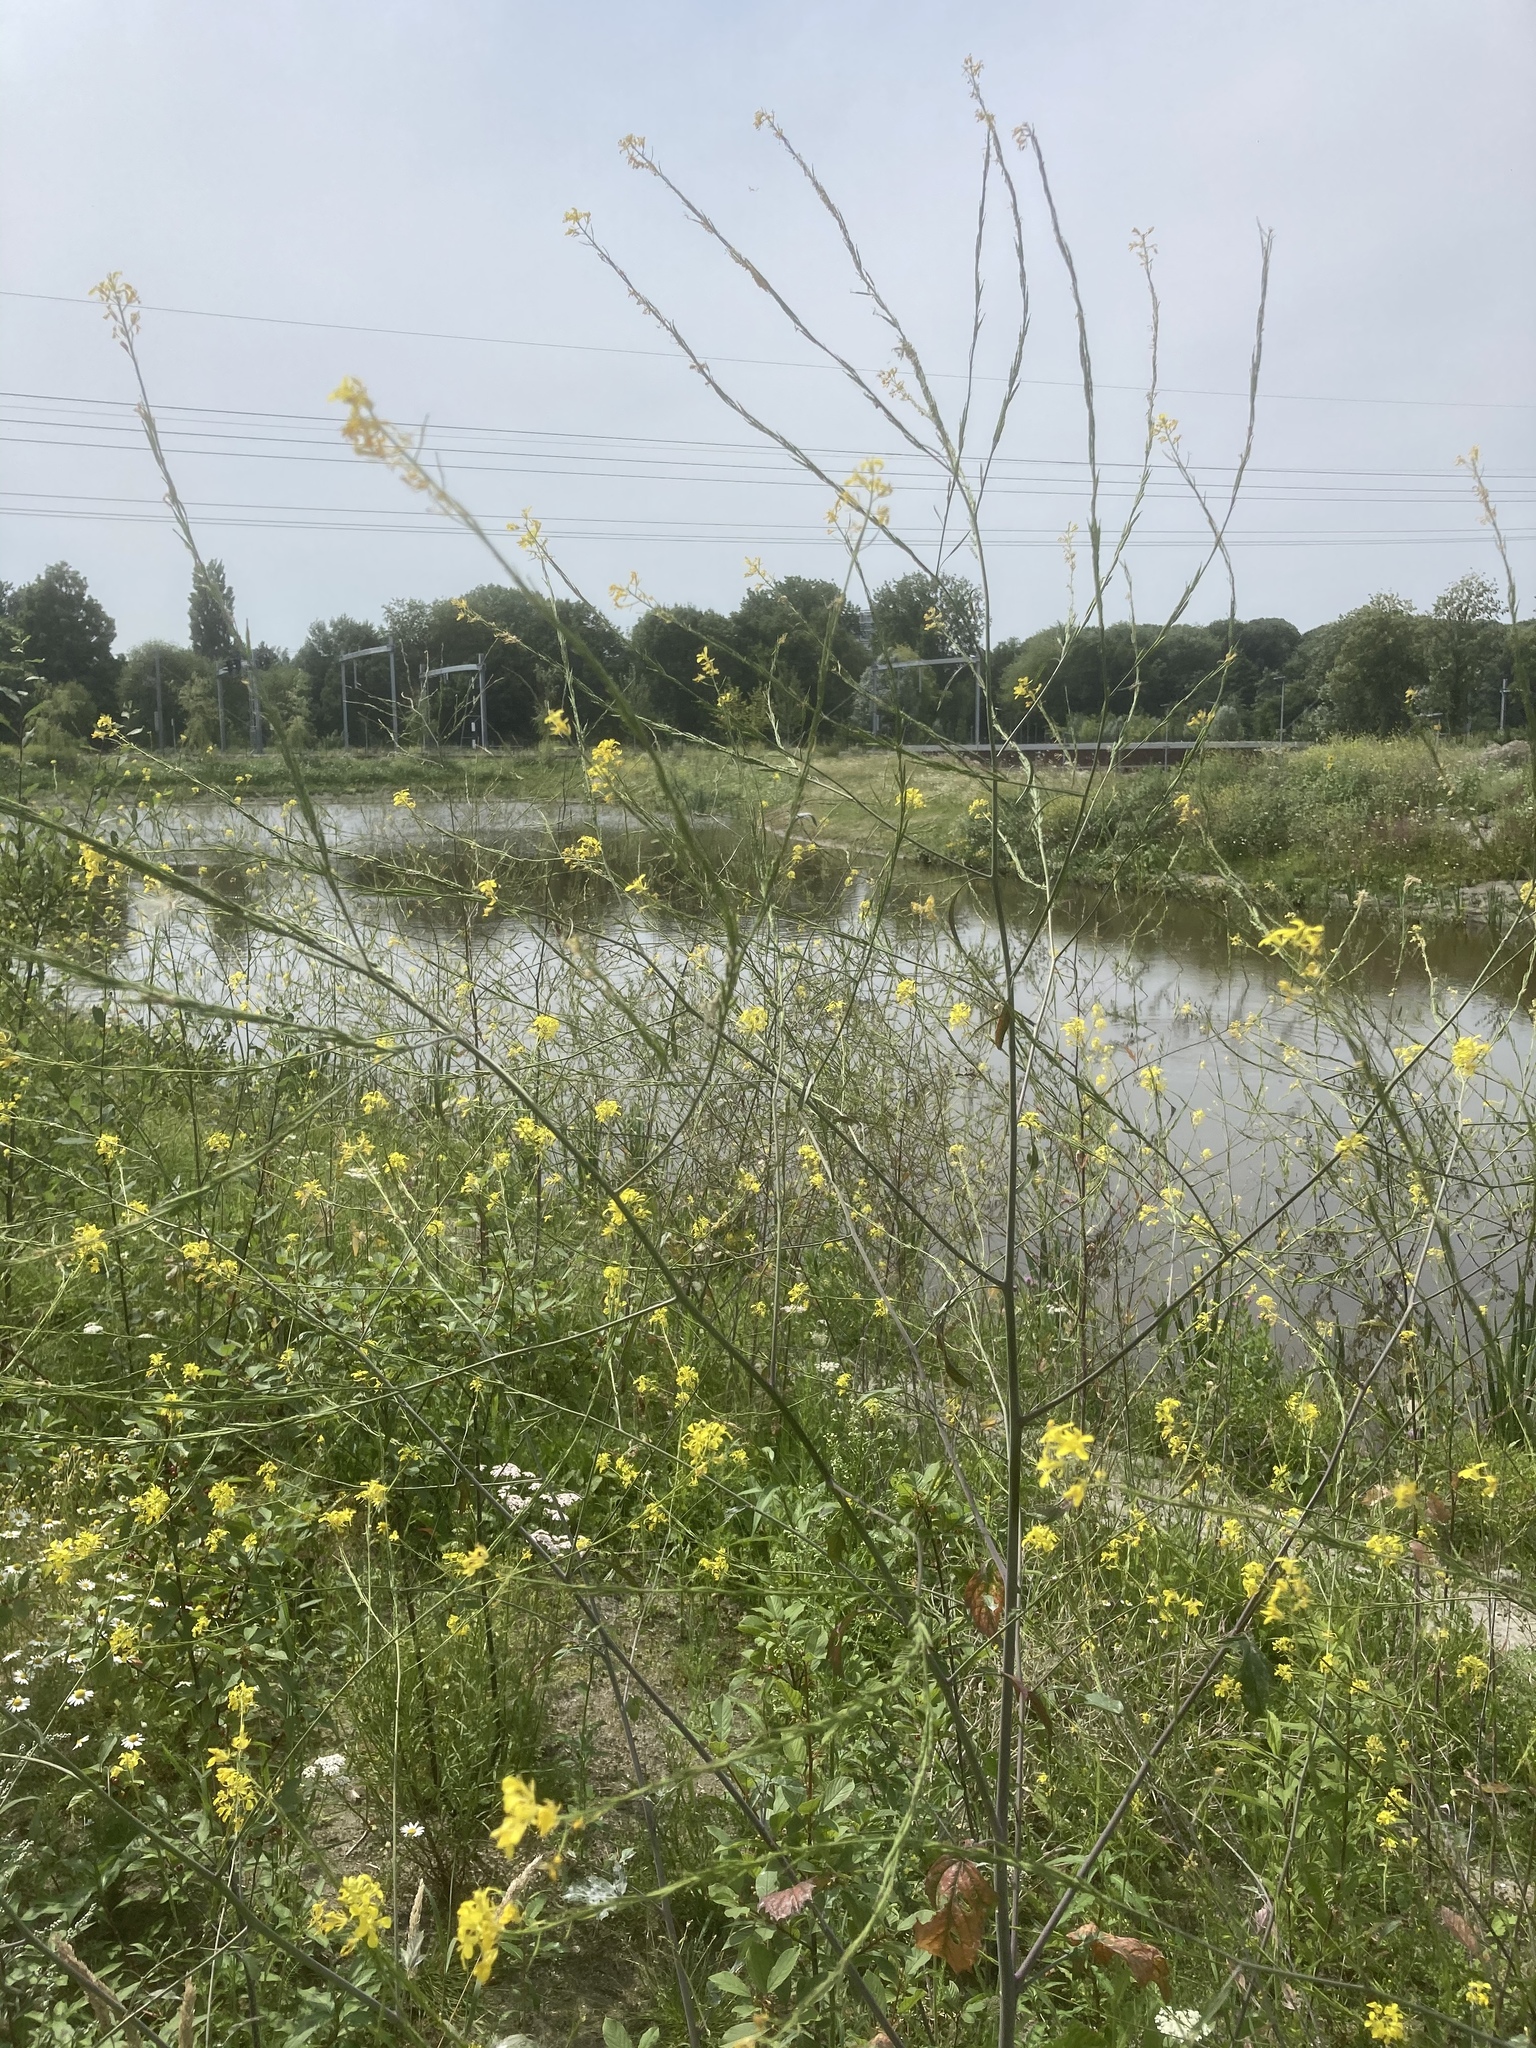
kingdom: Plantae
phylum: Tracheophyta
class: Magnoliopsida
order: Brassicales
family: Brassicaceae
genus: Brassica
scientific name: Brassica nigra
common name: Black mustard
